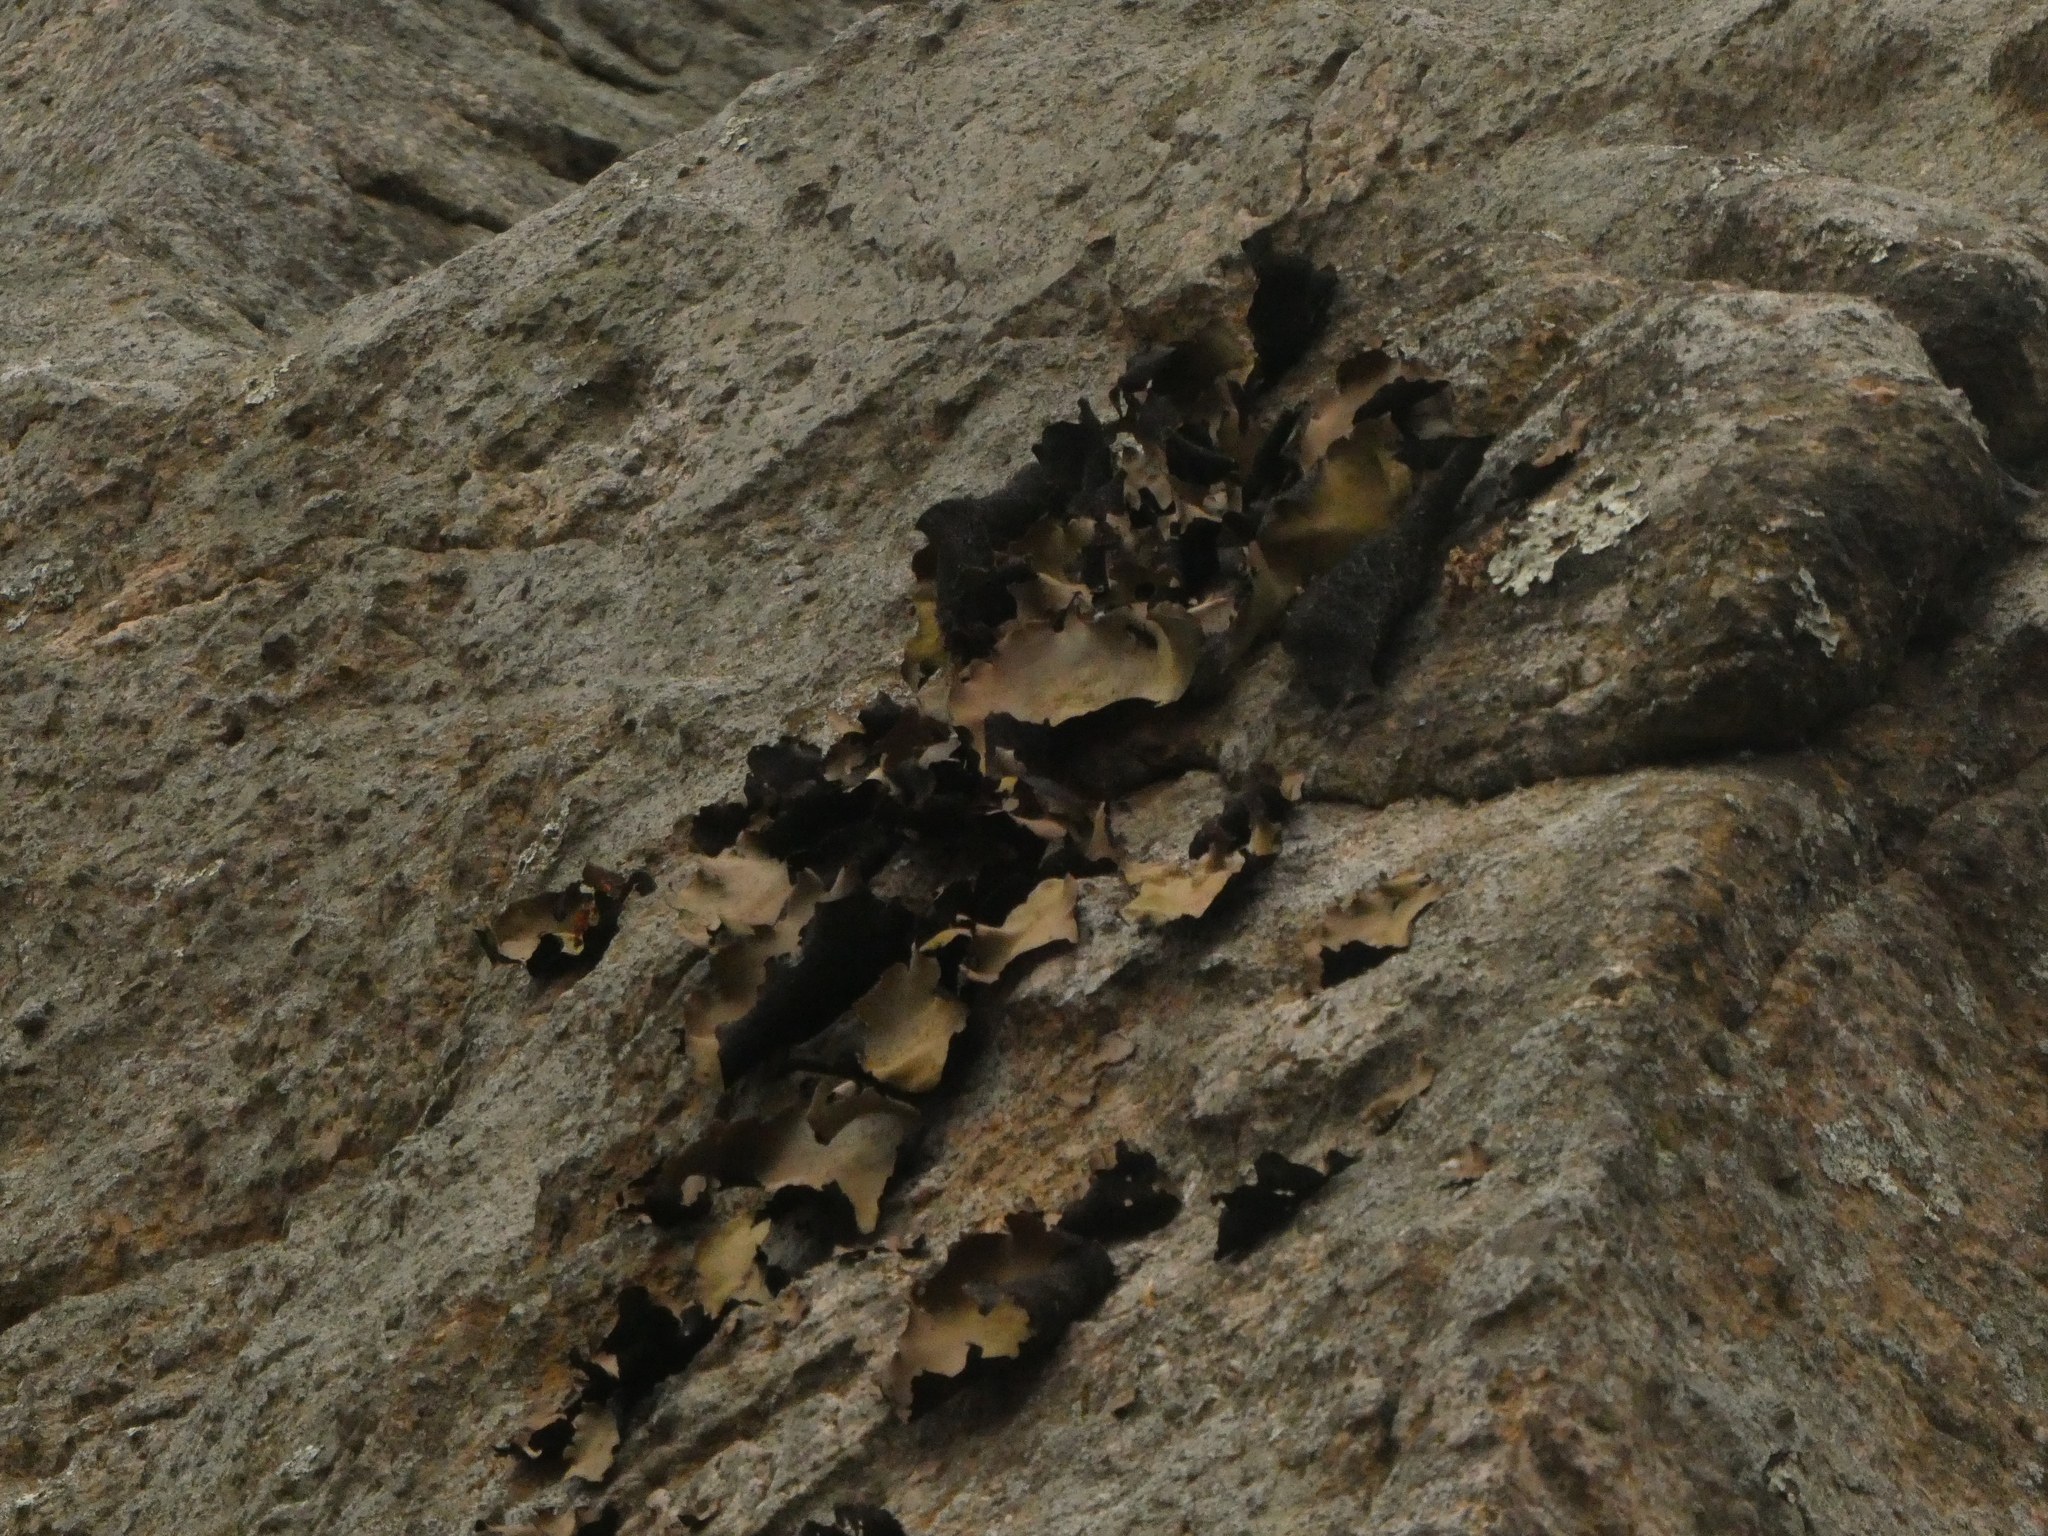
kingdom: Fungi
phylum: Ascomycota
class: Lecanoromycetes
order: Umbilicariales
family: Umbilicariaceae
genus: Umbilicaria
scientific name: Umbilicaria mammulata
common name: Smooth rock tripe
